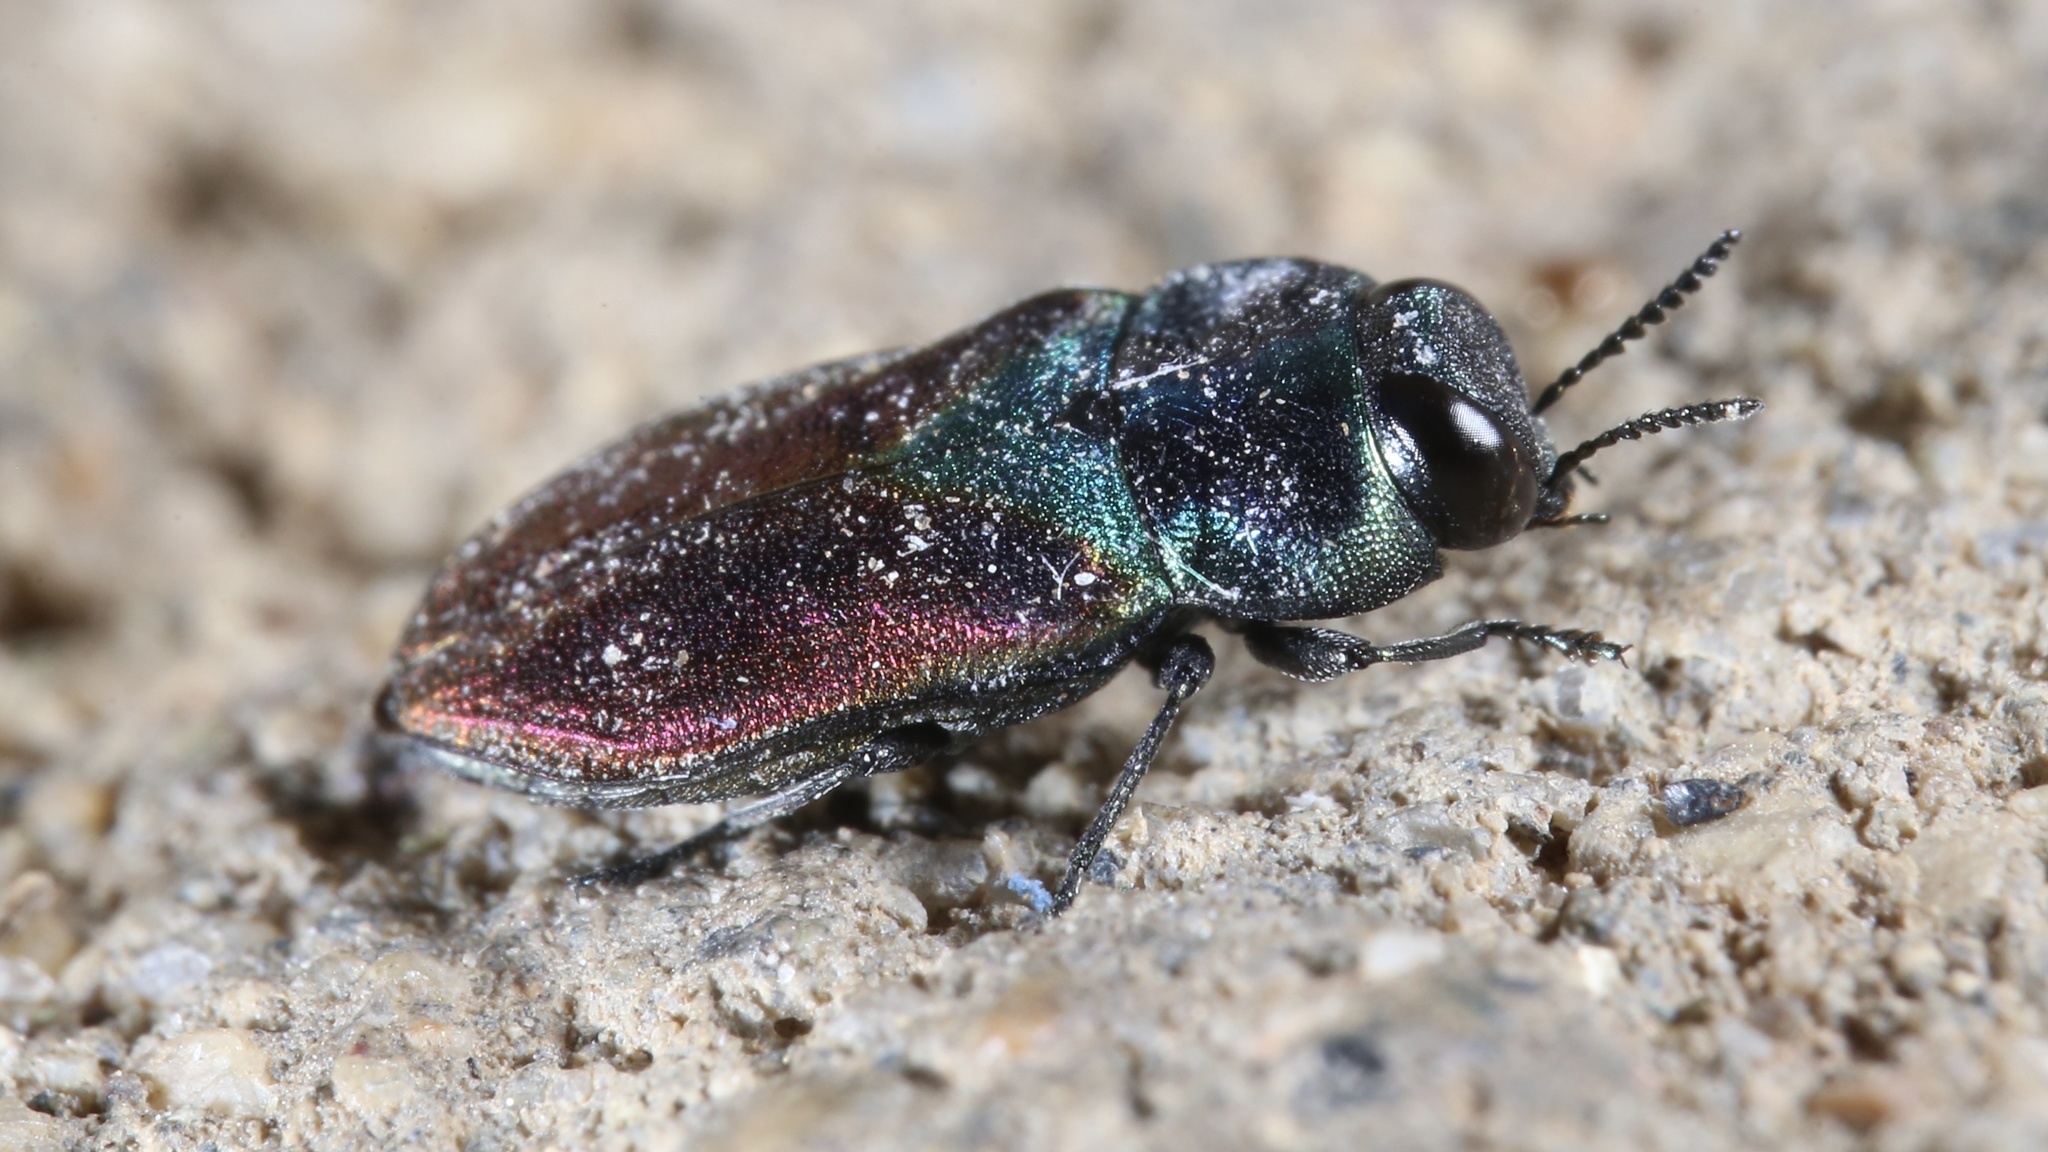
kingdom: Animalia
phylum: Arthropoda
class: Insecta
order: Coleoptera
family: Buprestidae
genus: Anthaxia
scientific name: Anthaxia bicolor
